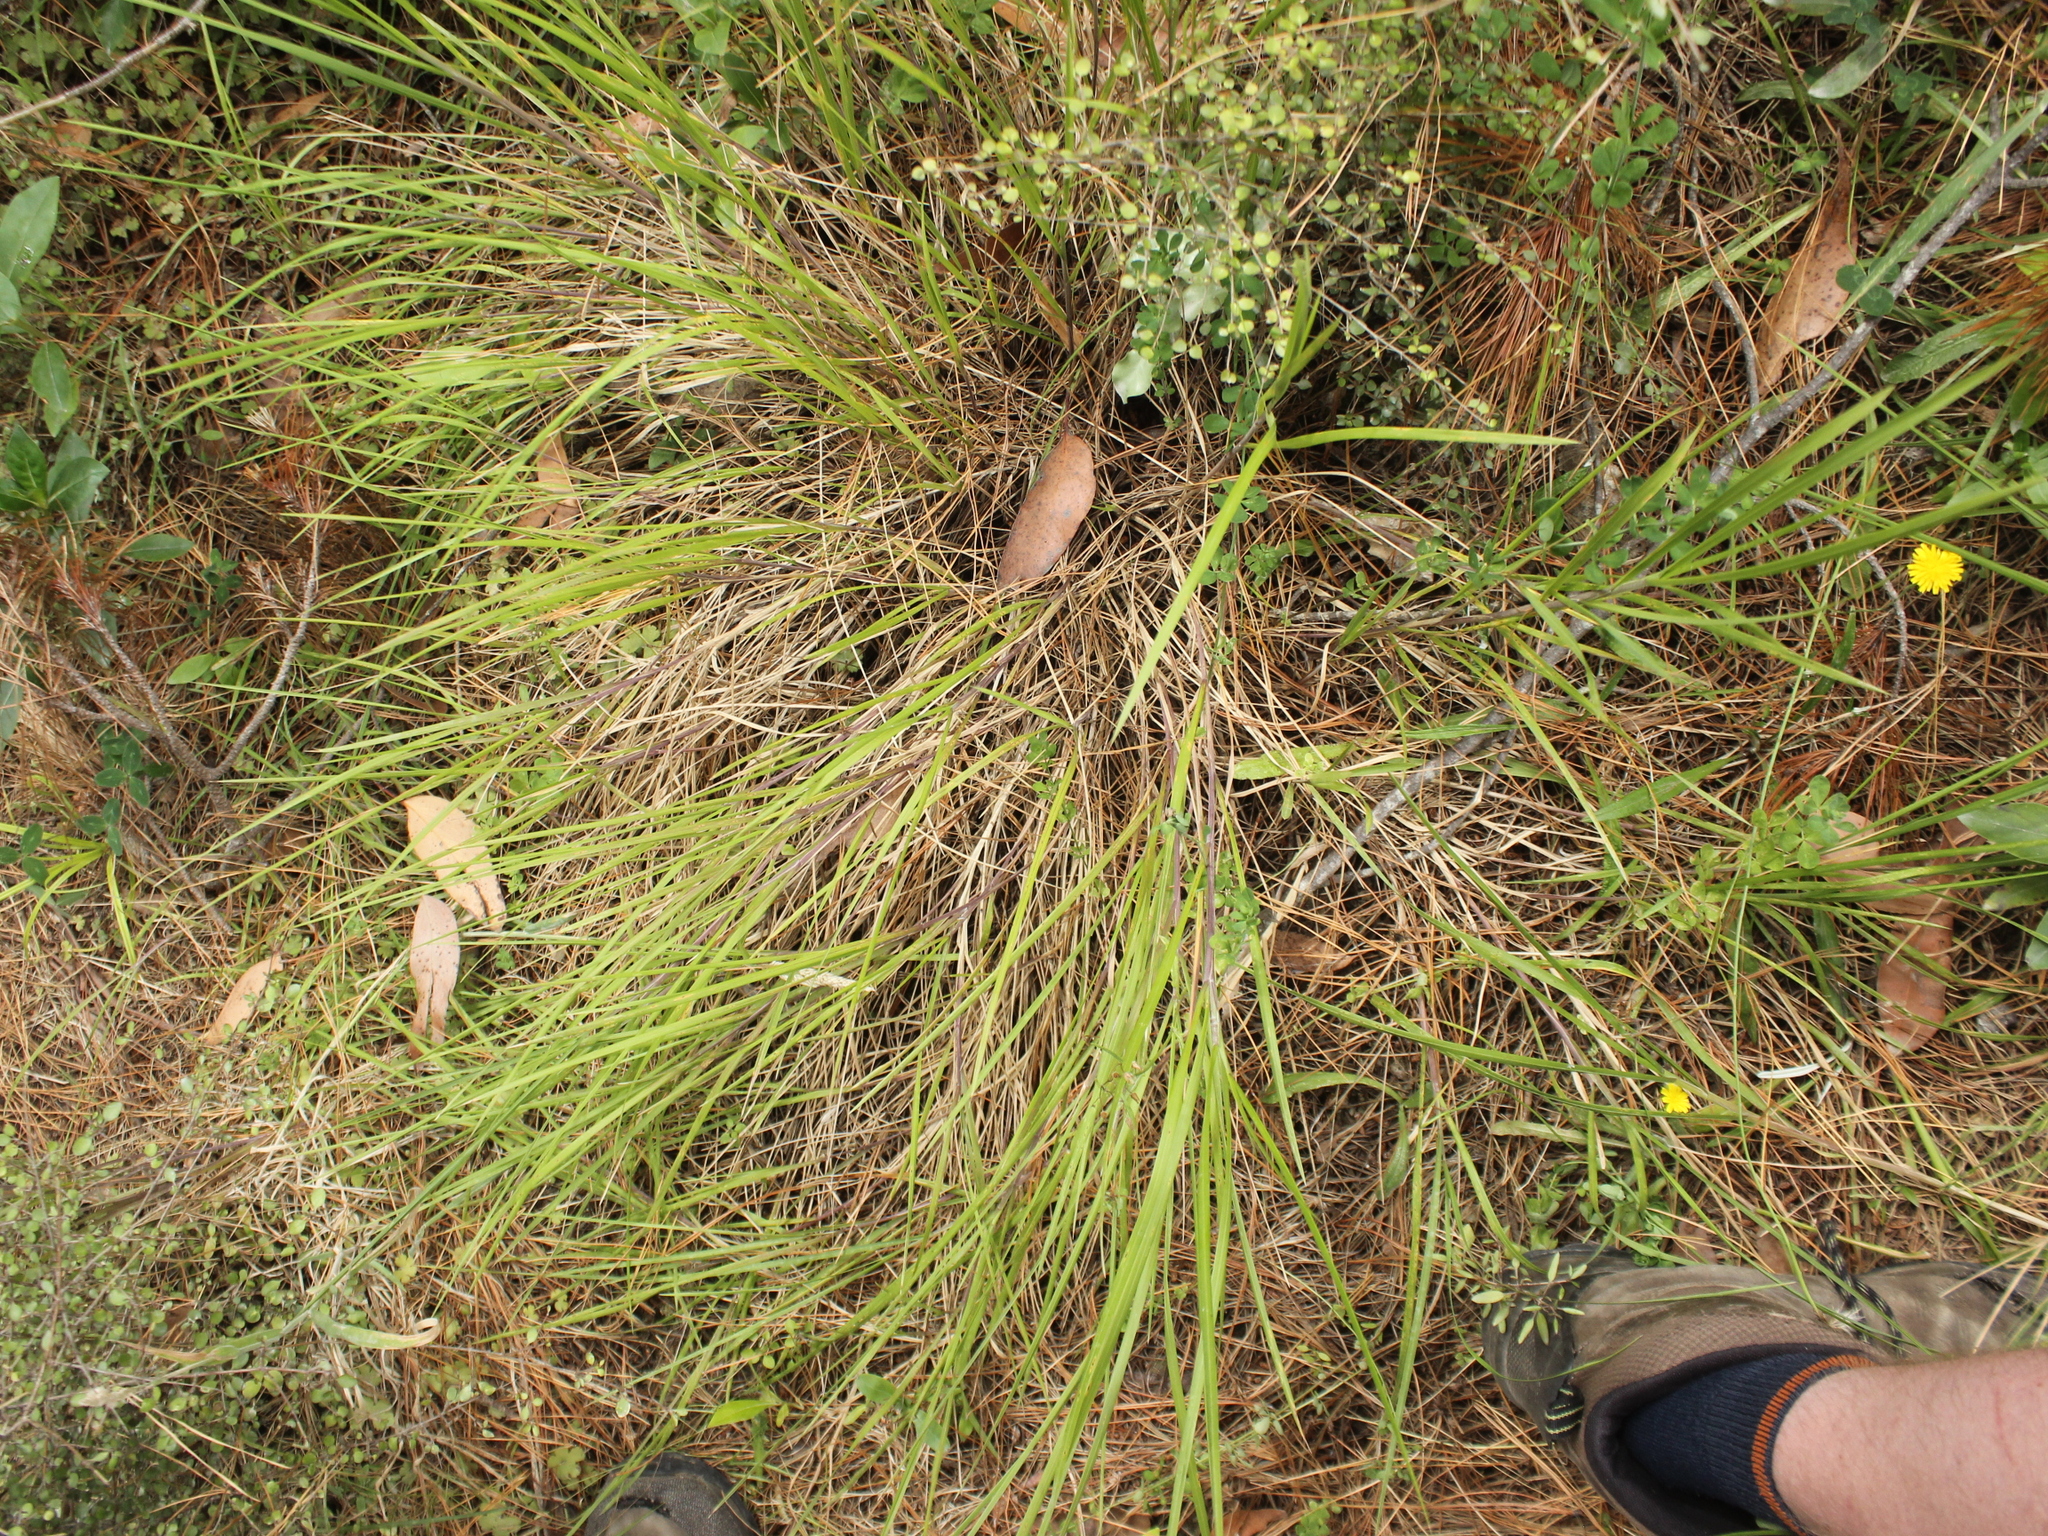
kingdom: Plantae
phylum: Tracheophyta
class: Liliopsida
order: Poales
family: Poaceae
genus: Poa
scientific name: Poa anceps
